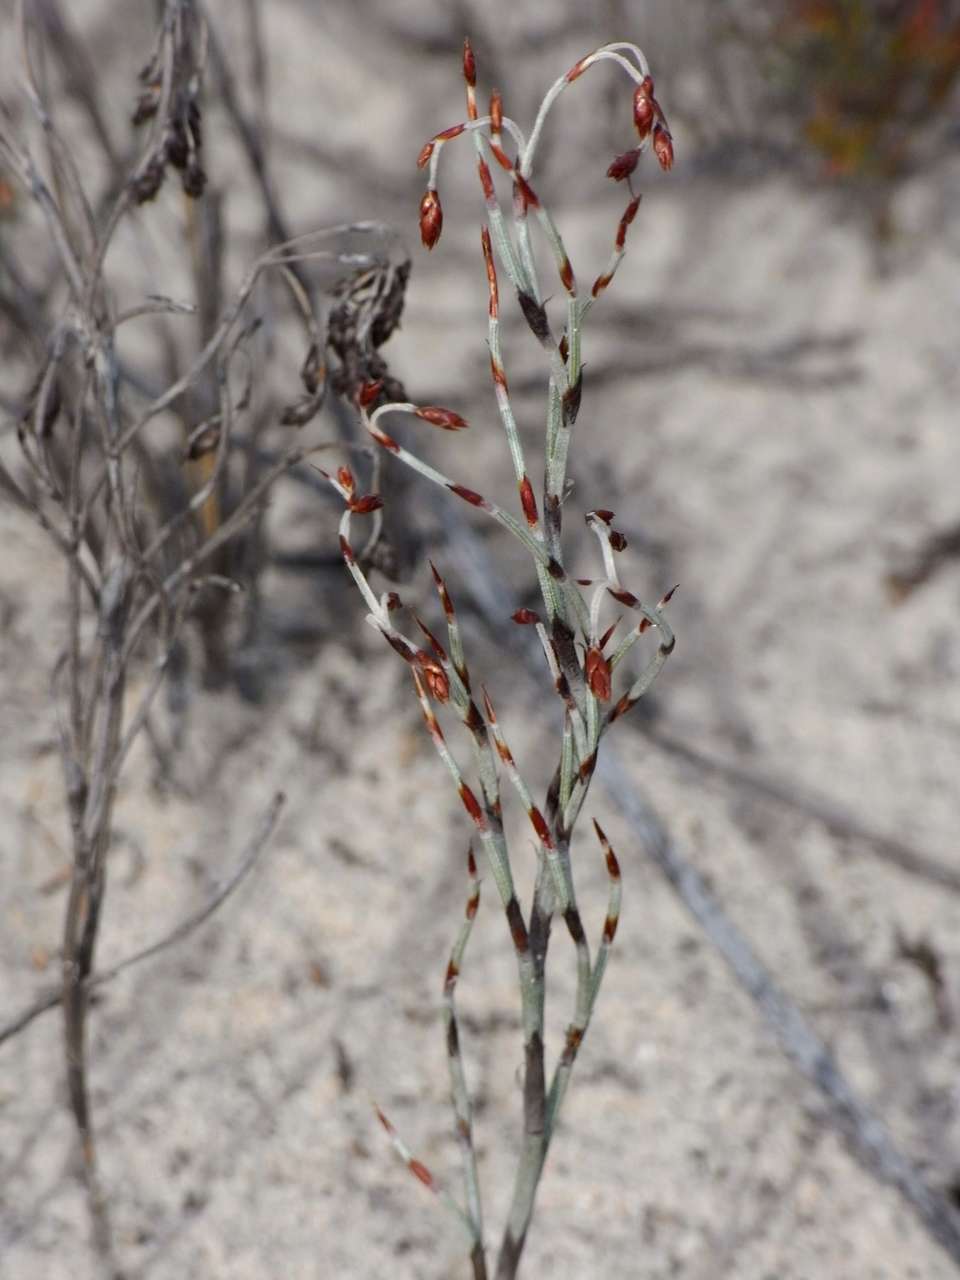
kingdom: Plantae
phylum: Tracheophyta
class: Liliopsida
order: Poales
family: Restionaceae
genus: Hypolaena
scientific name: Hypolaena fastigiata
